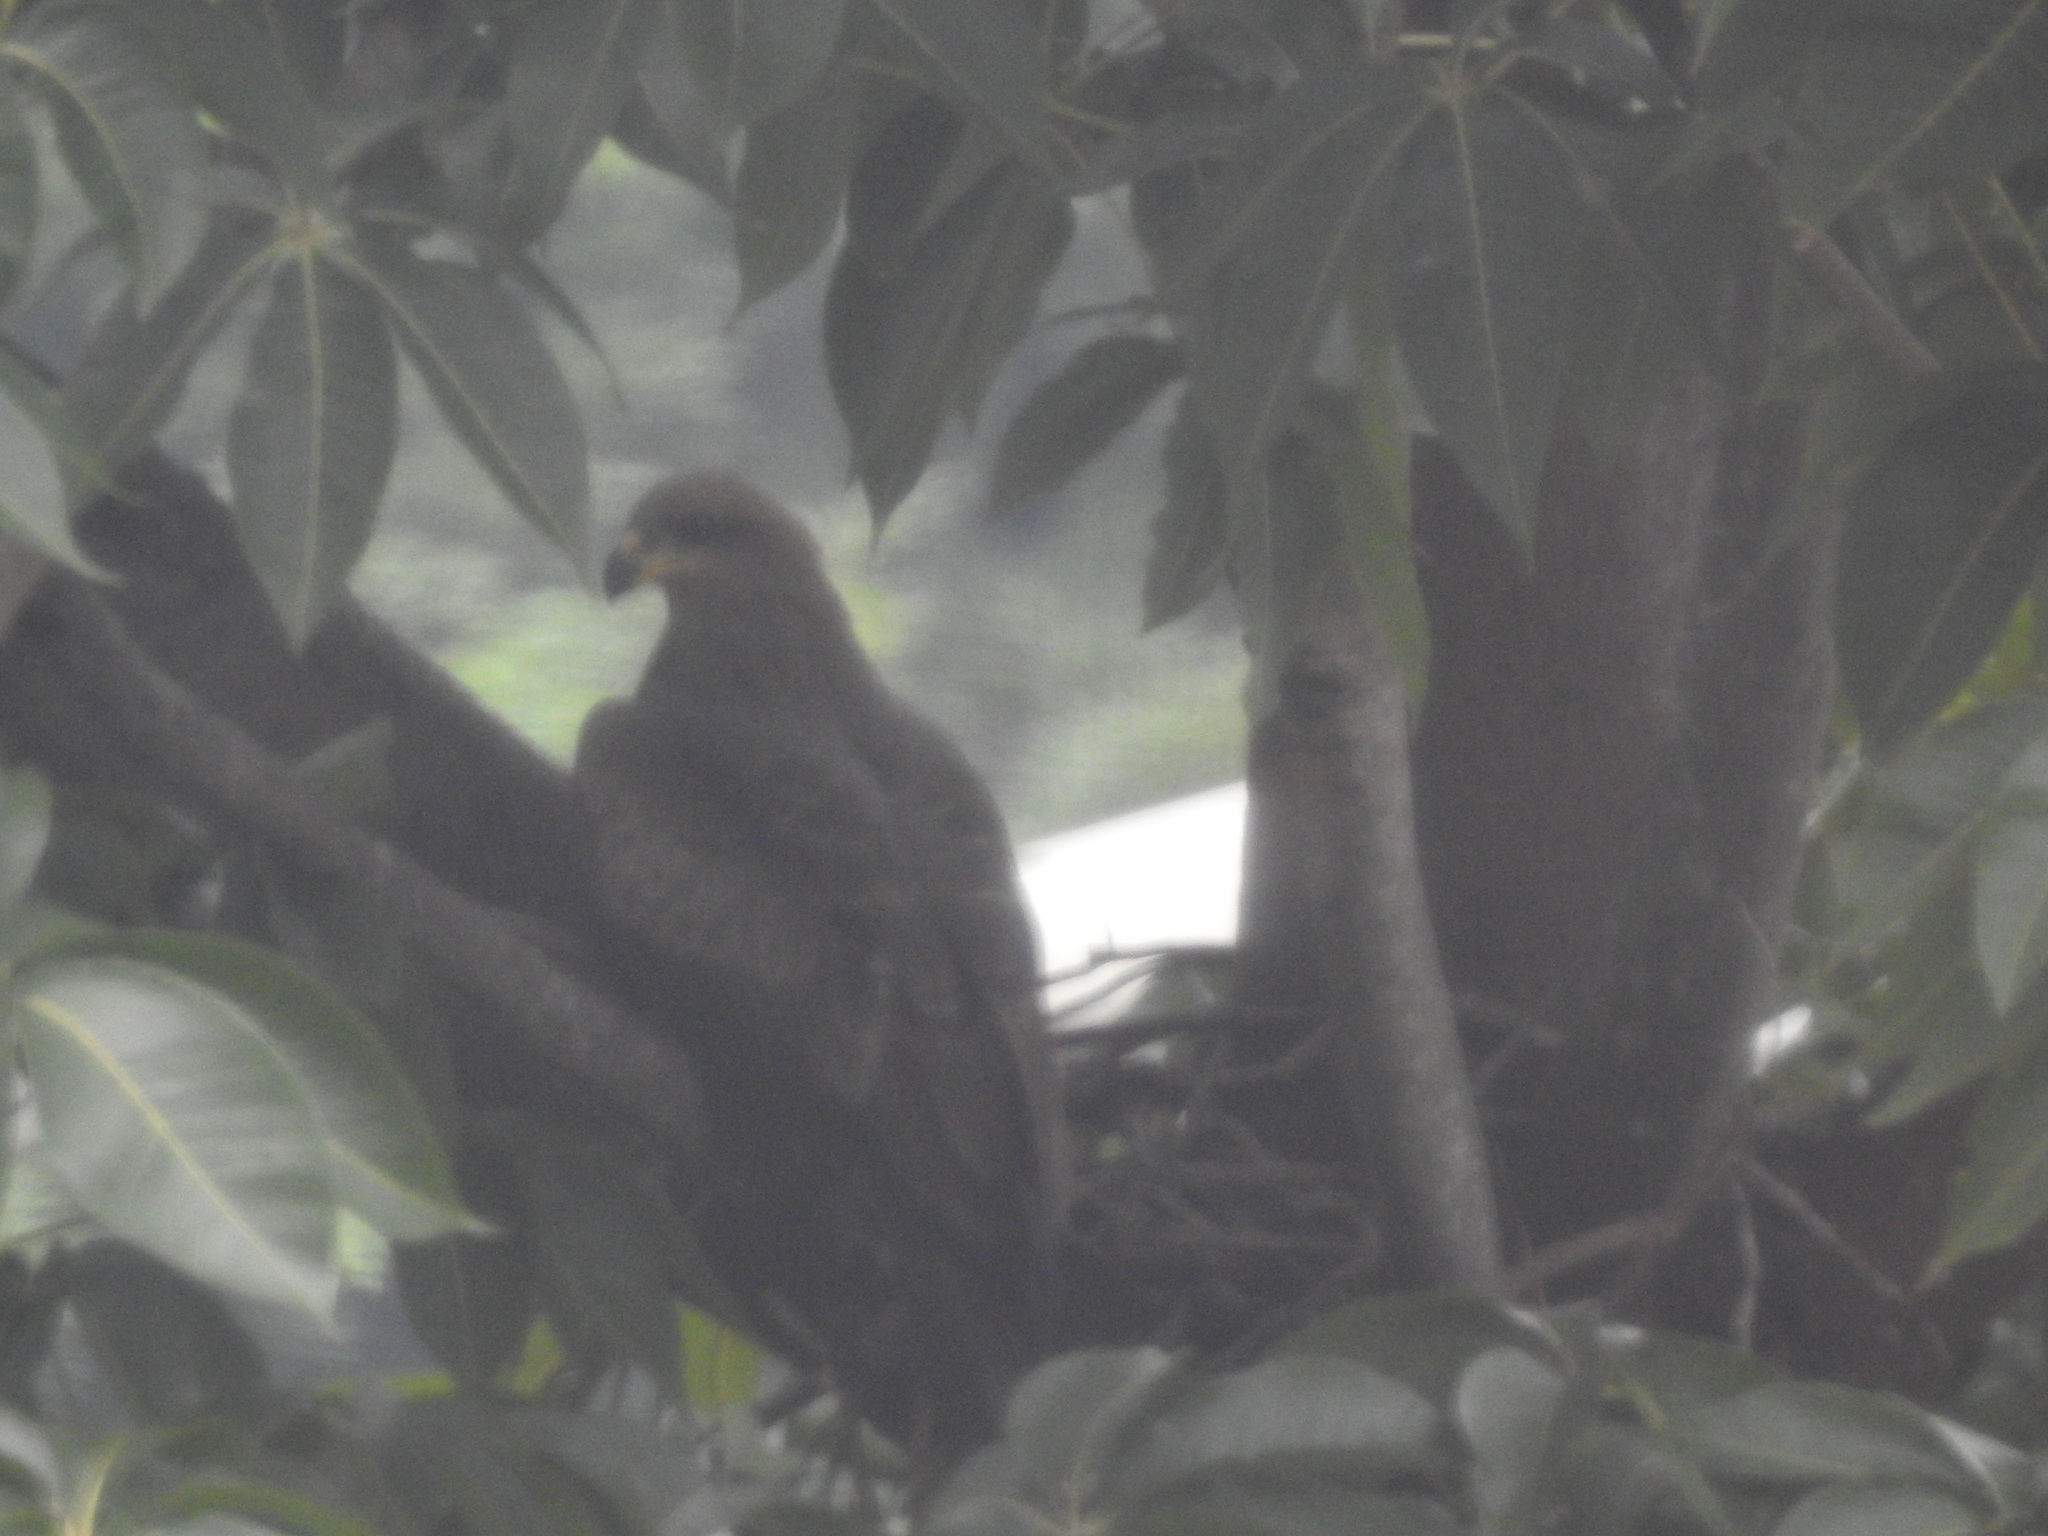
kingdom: Animalia
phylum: Chordata
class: Aves
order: Accipitriformes
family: Accipitridae
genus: Milvus
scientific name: Milvus migrans
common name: Black kite
